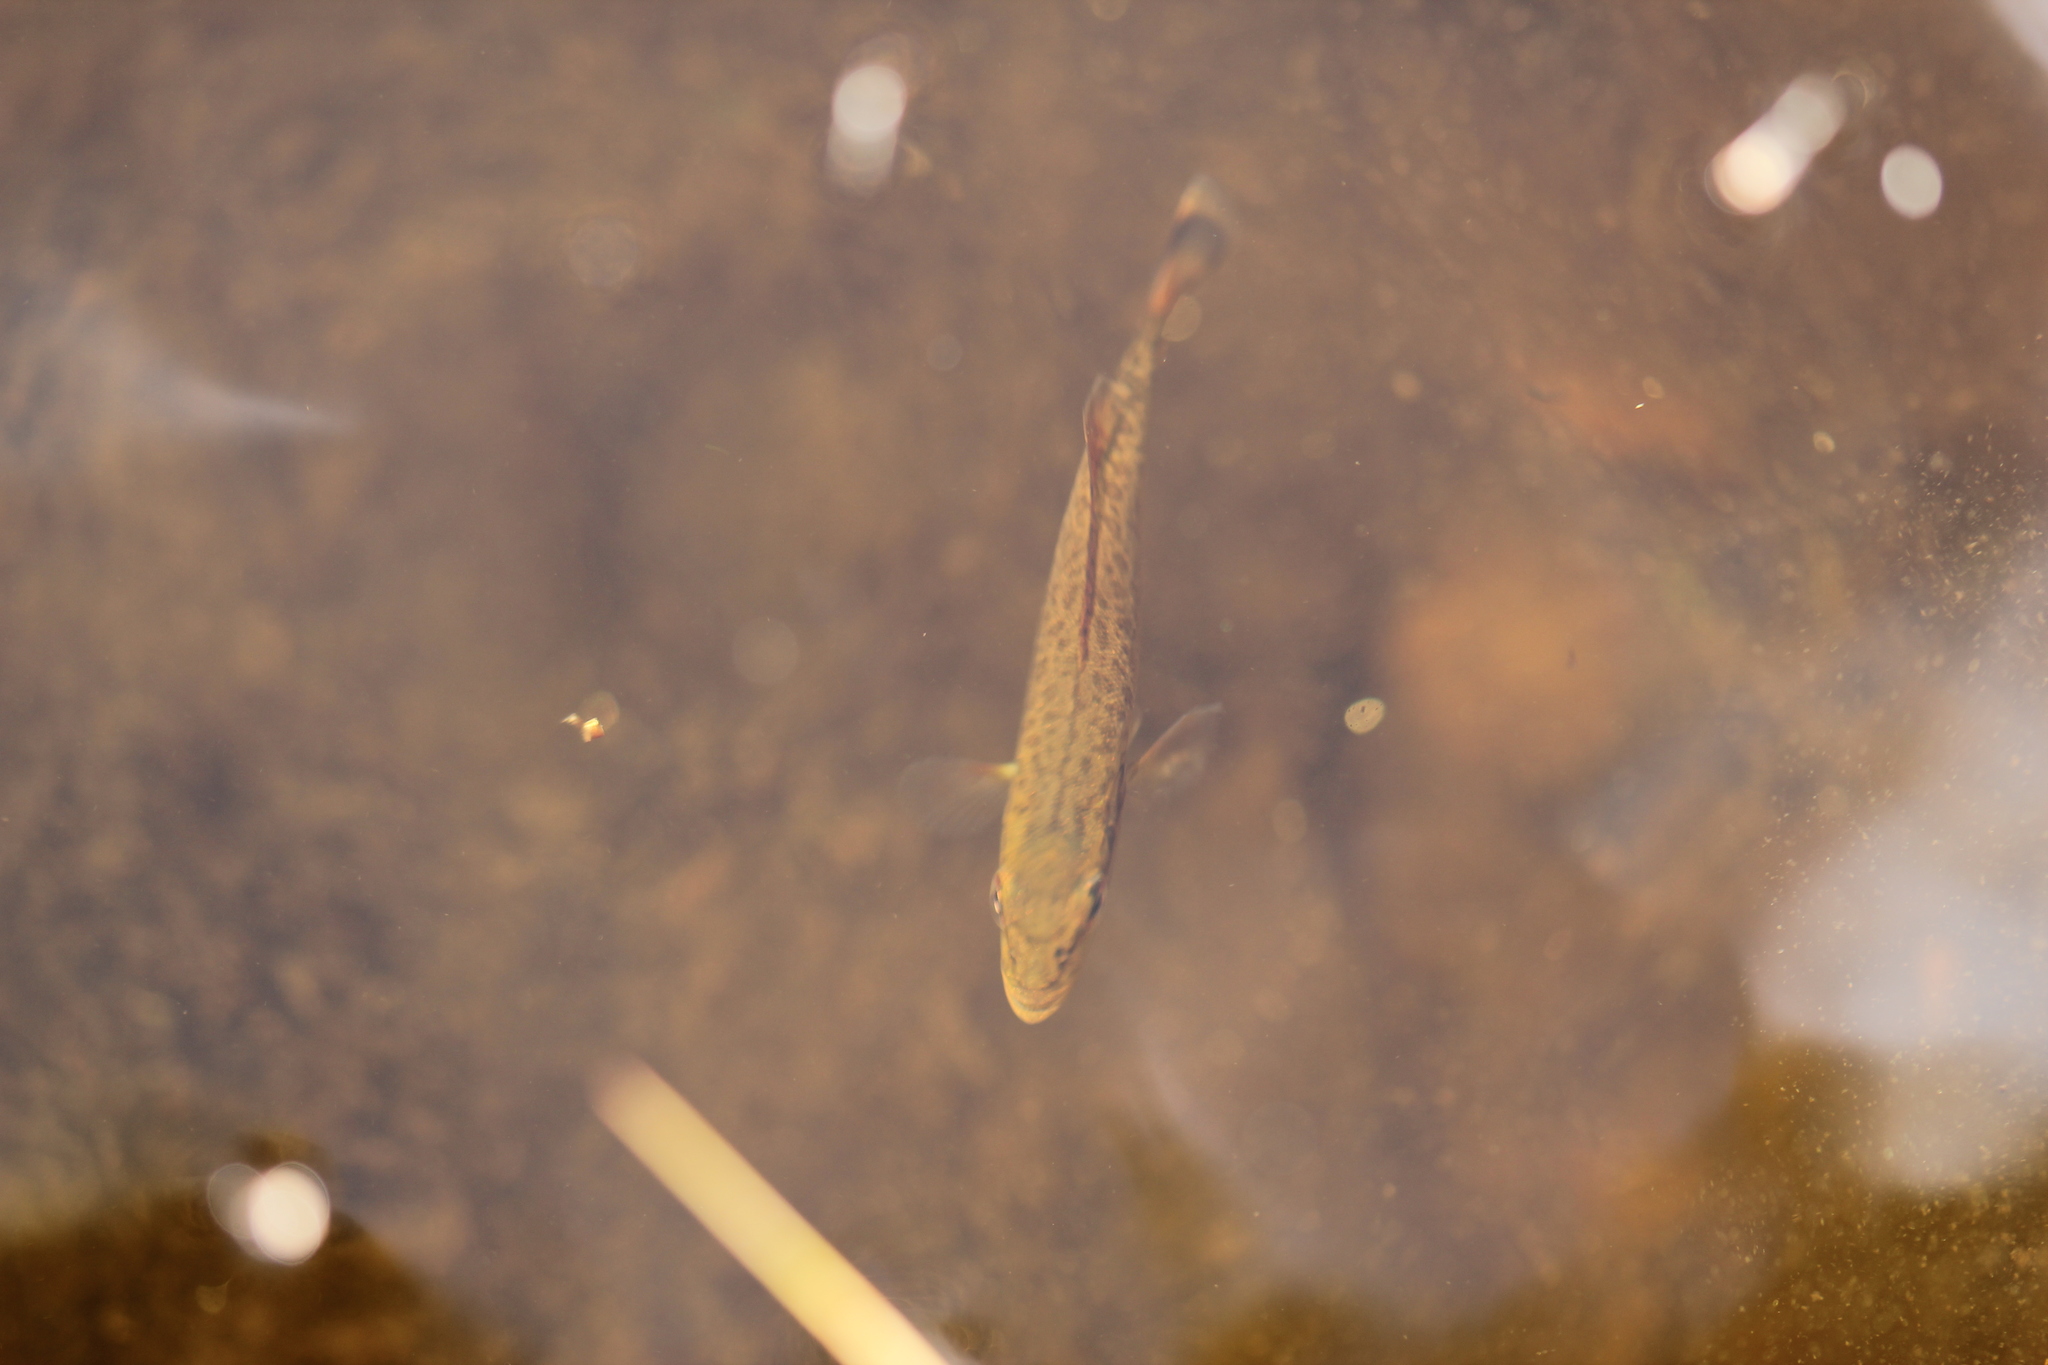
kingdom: Animalia
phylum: Chordata
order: Perciformes
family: Centrarchidae
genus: Micropterus
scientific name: Micropterus dolomieu
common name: Smallmouth bass
